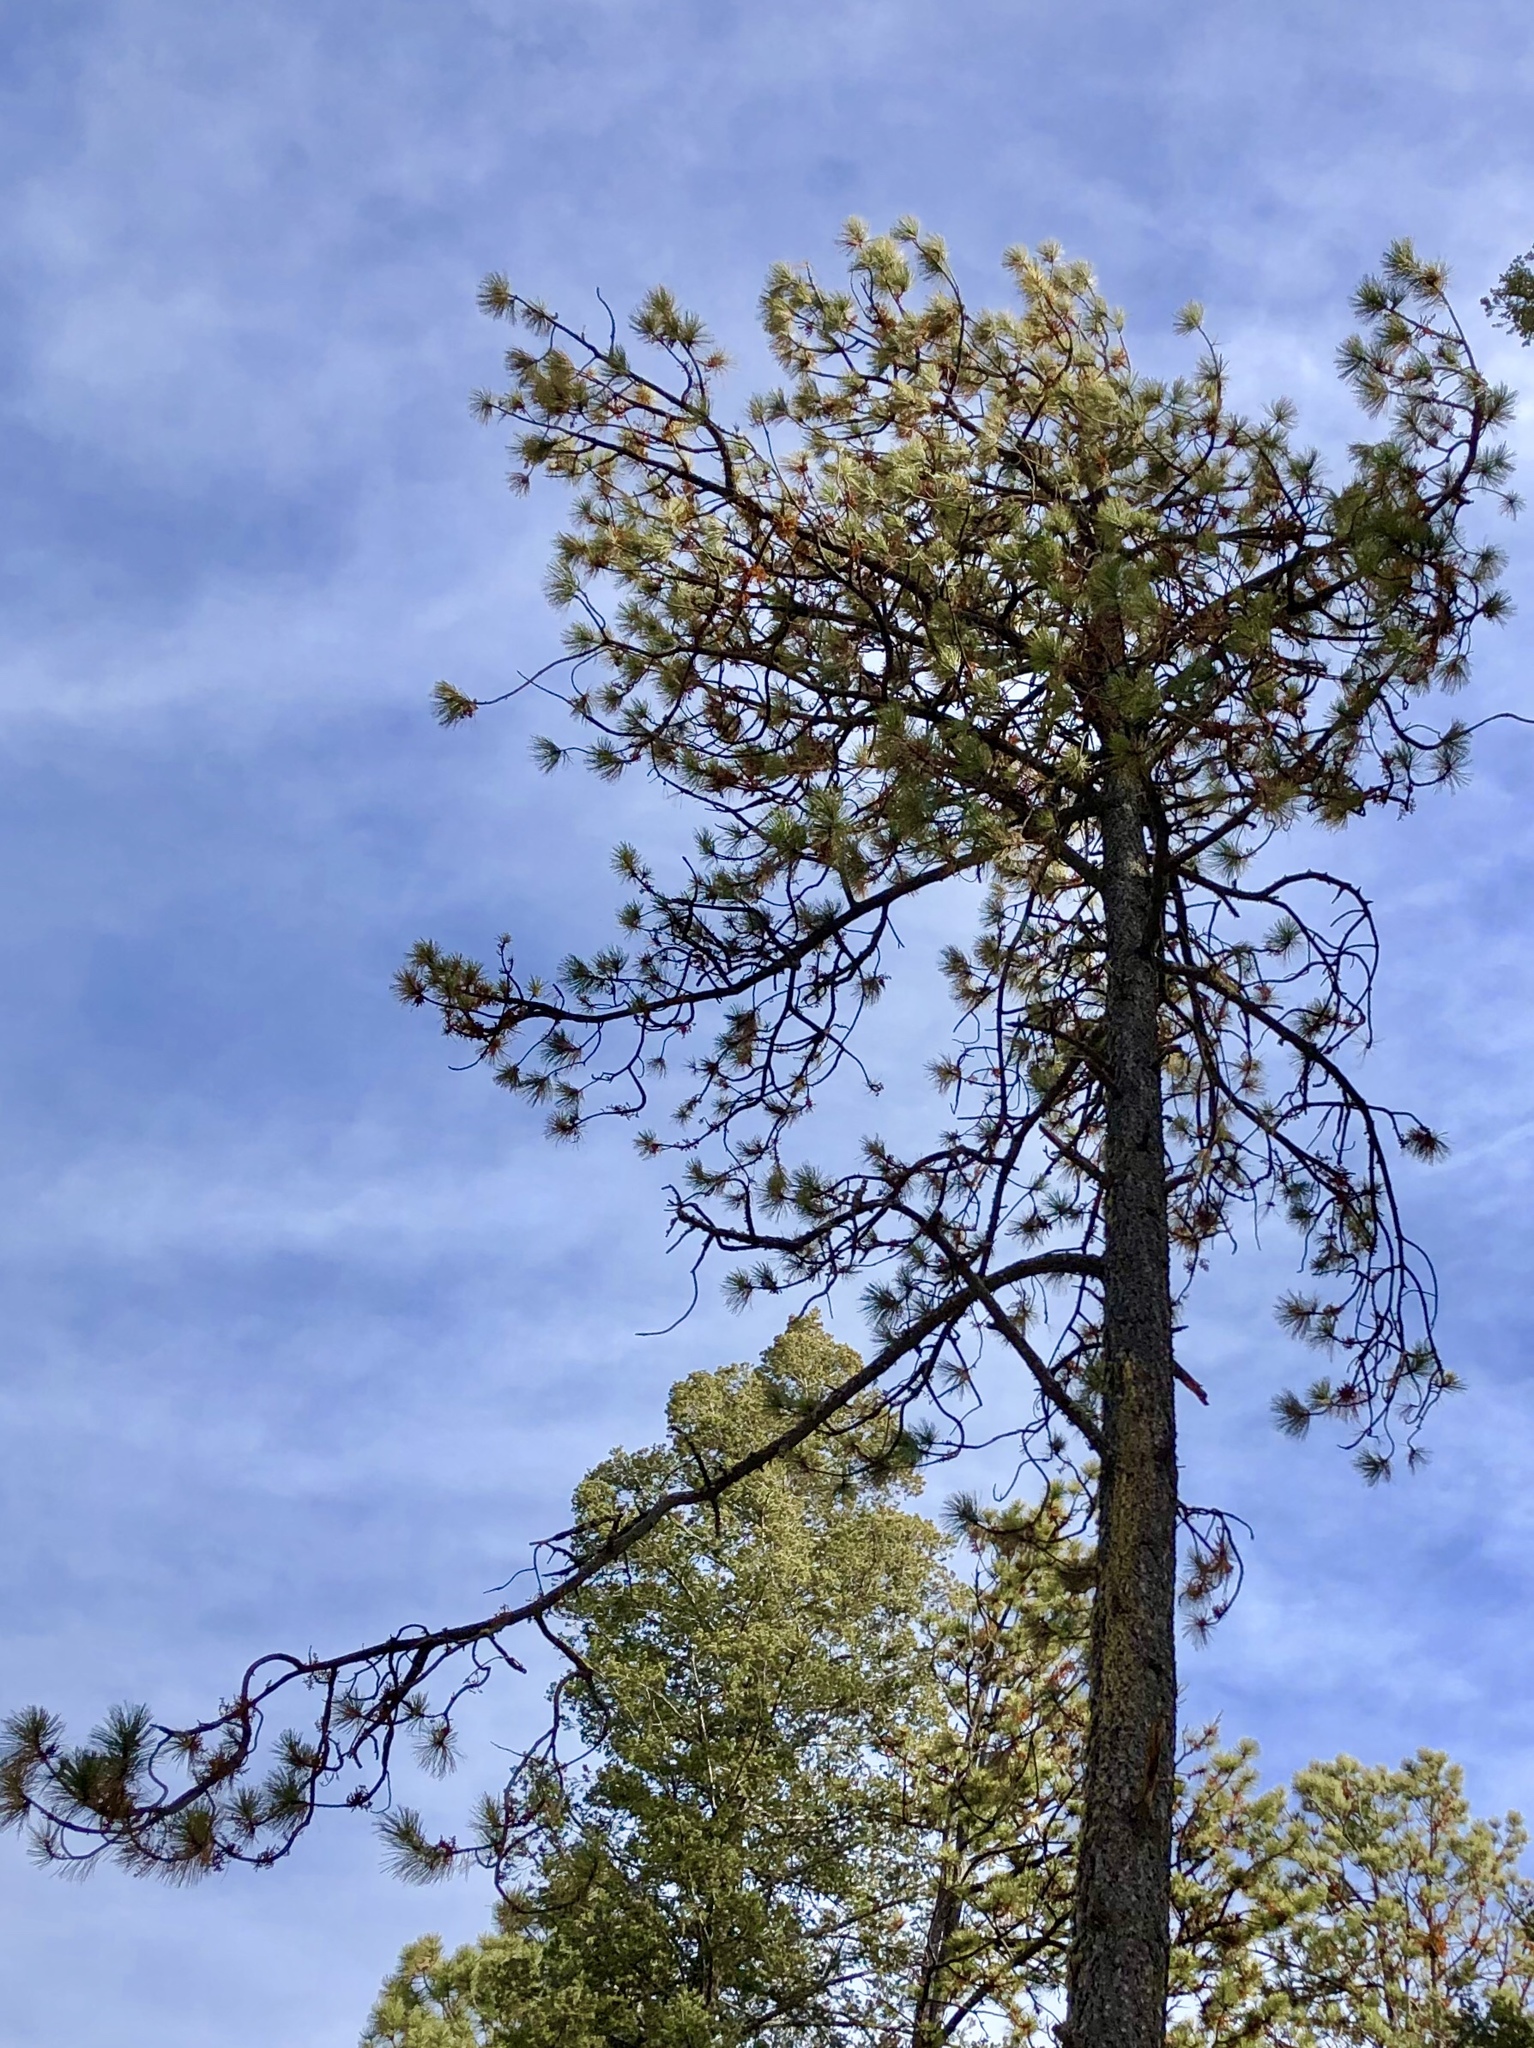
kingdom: Plantae
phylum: Tracheophyta
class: Pinopsida
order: Pinales
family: Pinaceae
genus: Pinus
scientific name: Pinus ponderosa
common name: Western yellow-pine
